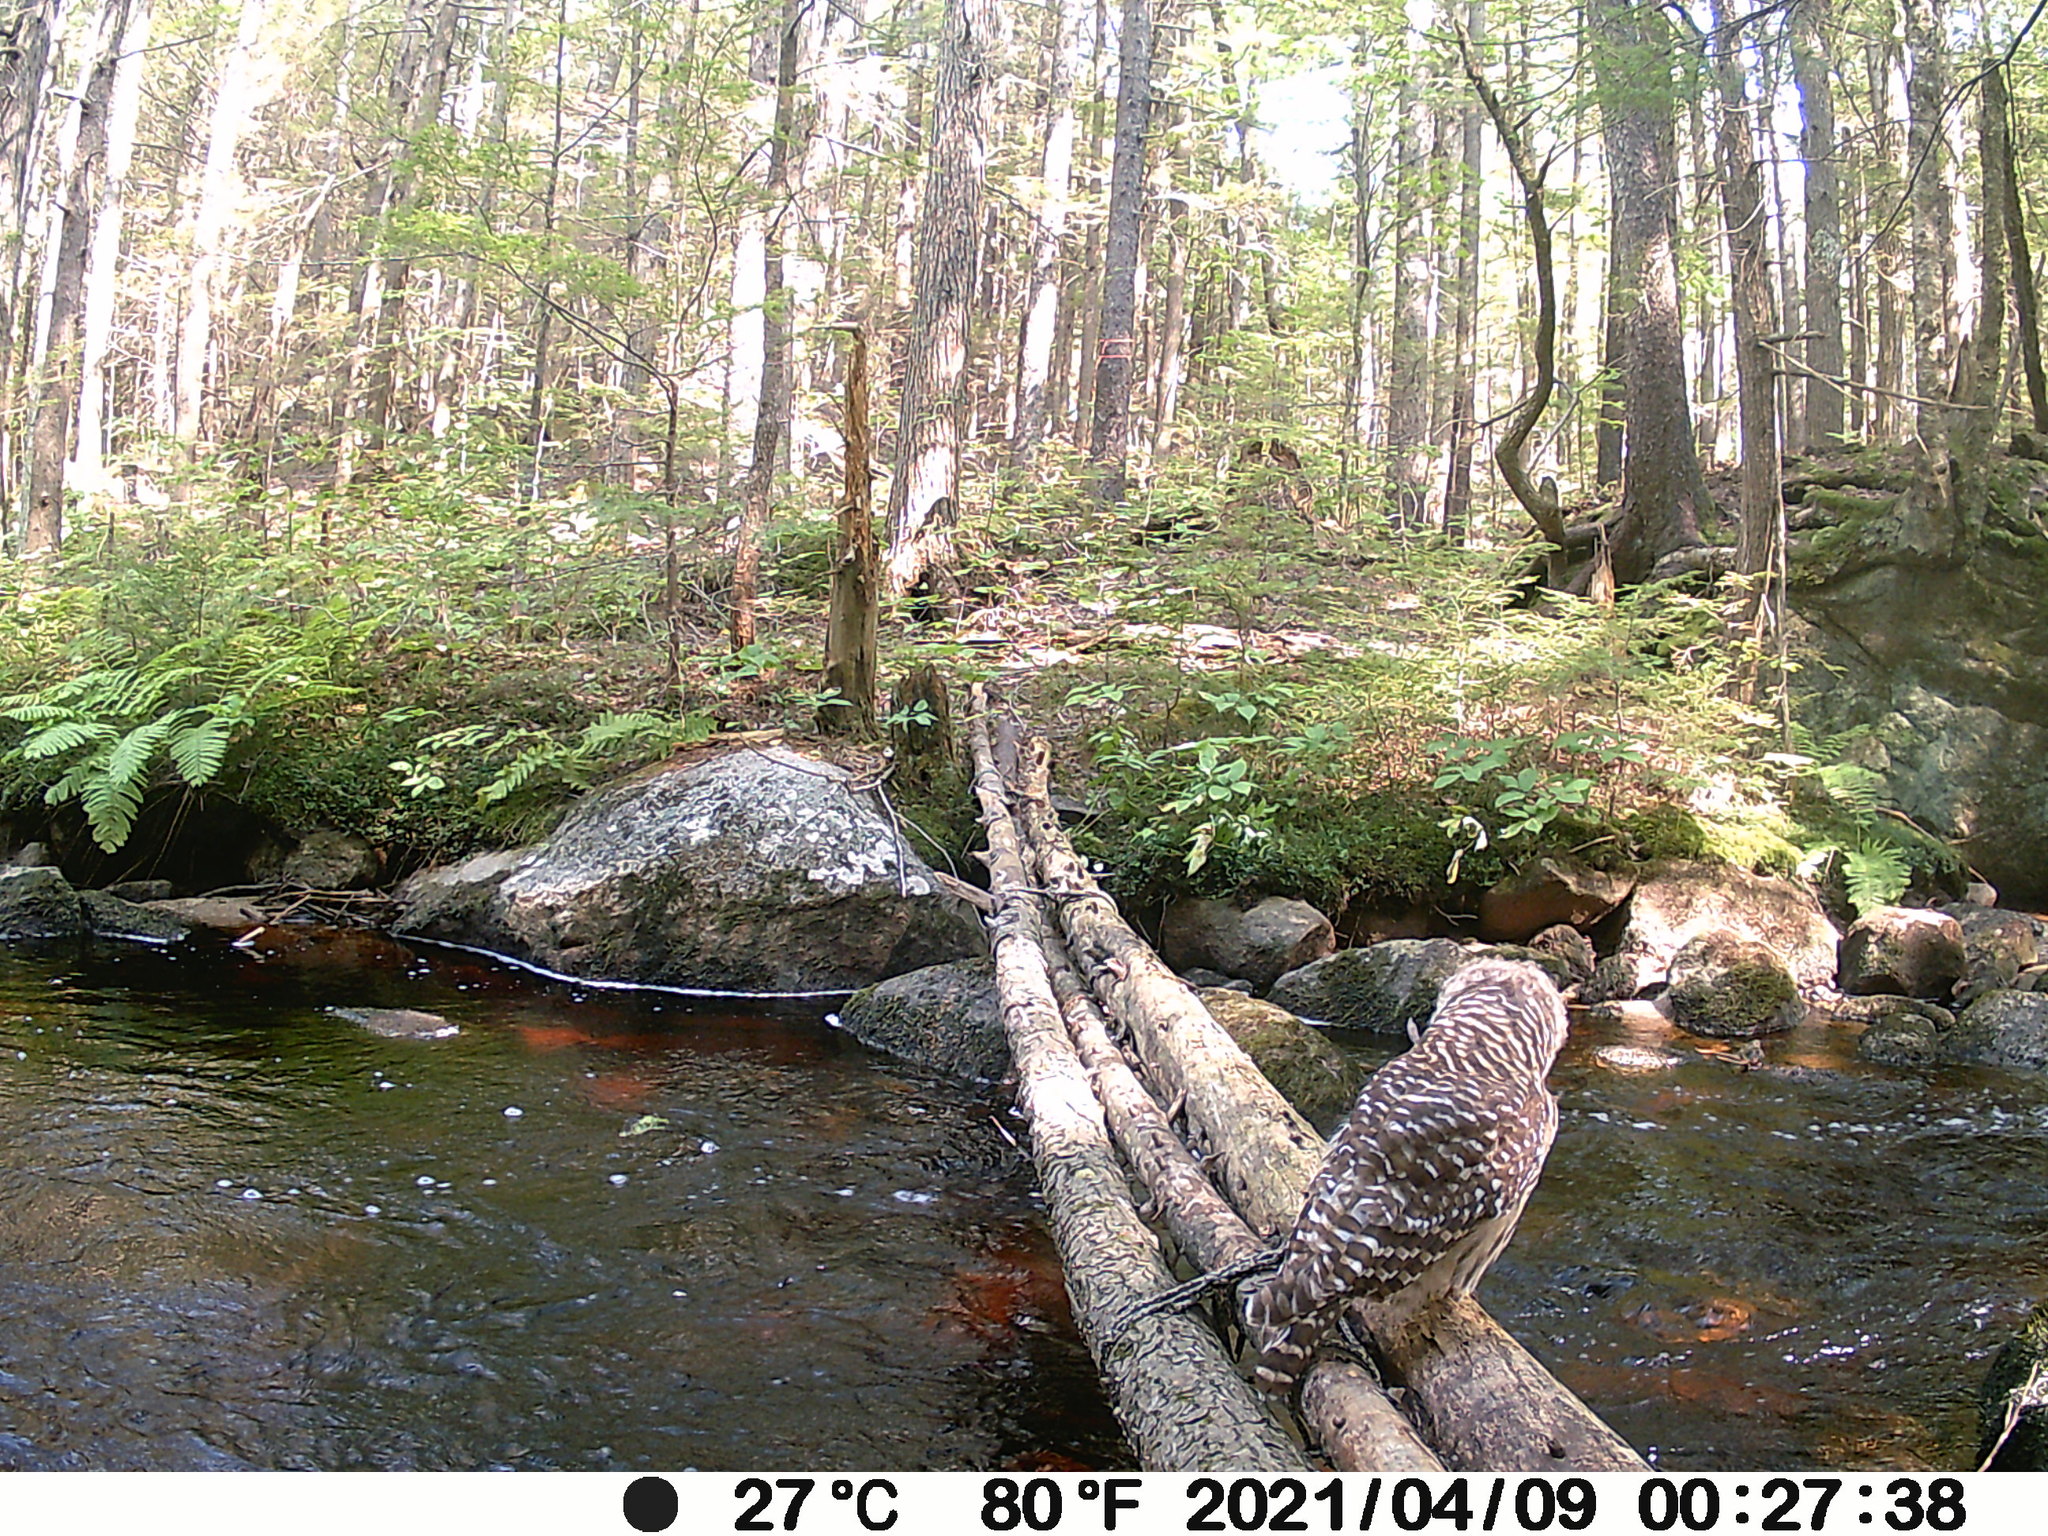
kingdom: Animalia
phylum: Chordata
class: Aves
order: Strigiformes
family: Strigidae
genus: Strix
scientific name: Strix varia
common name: Barred owl
